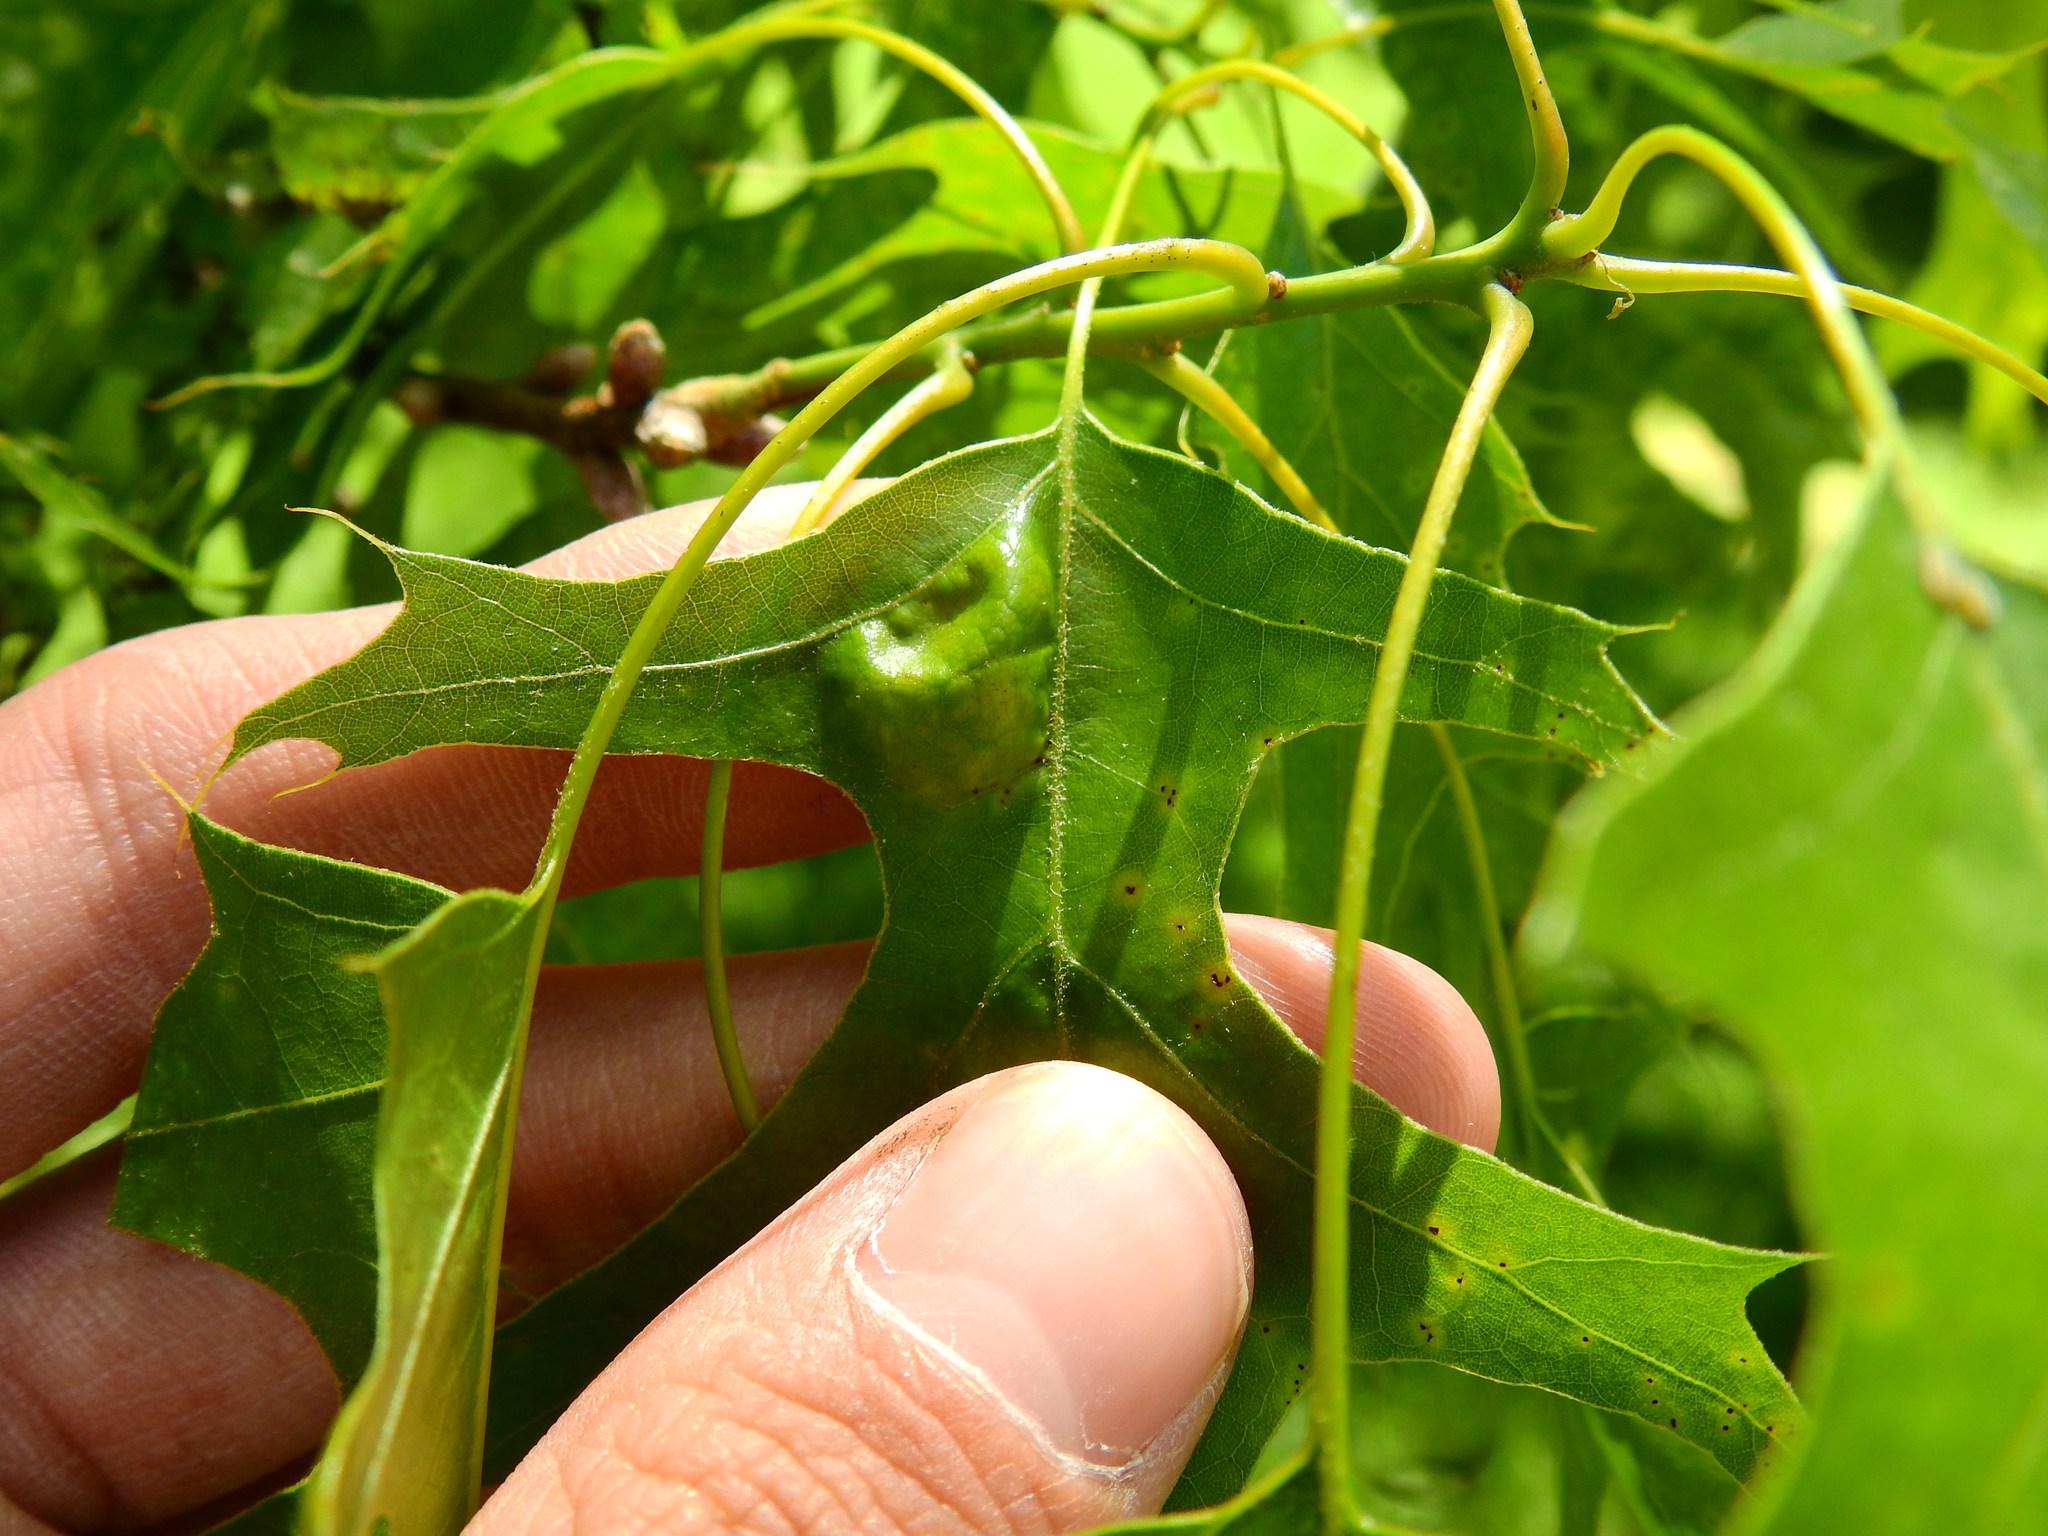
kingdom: Fungi
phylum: Ascomycota
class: Taphrinomycetes
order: Taphrinales
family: Taphrinaceae
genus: Taphrina
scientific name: Taphrina caerulescens
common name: Oak leaf blister
